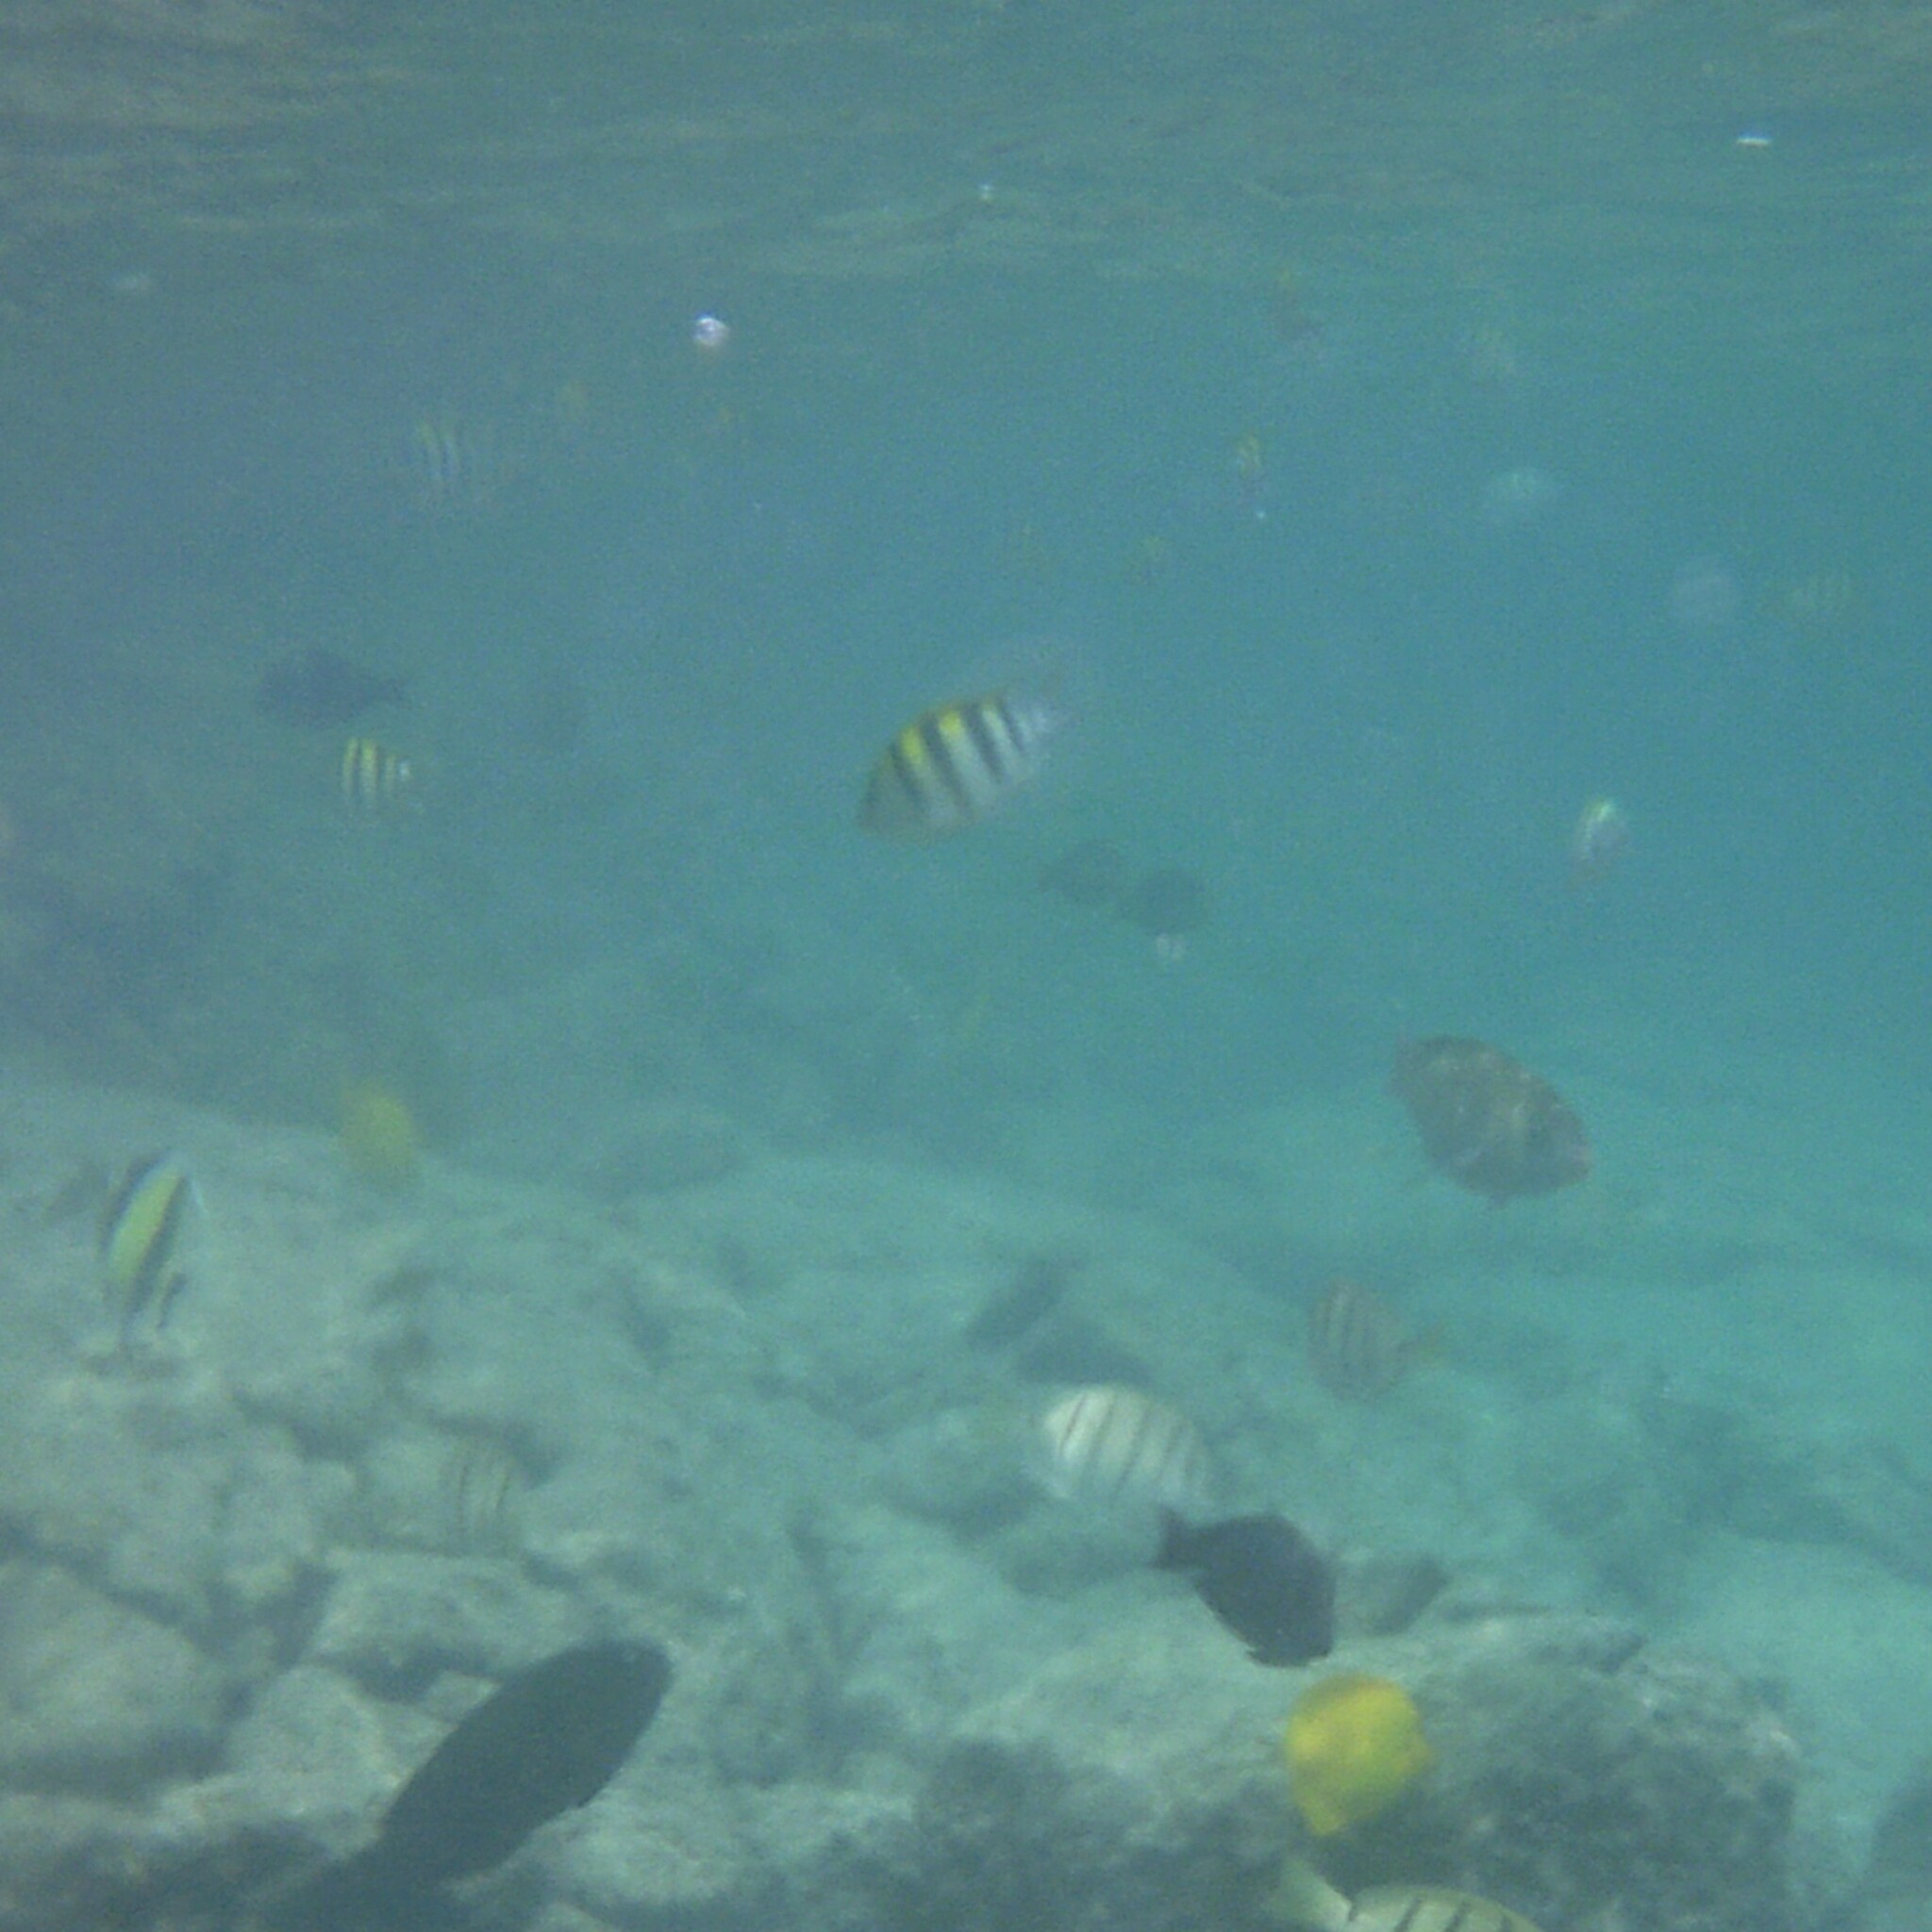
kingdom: Animalia
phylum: Chordata
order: Perciformes
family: Pomacentridae
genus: Abudefduf
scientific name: Abudefduf vaigiensis
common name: Indo-pacific sergeant
